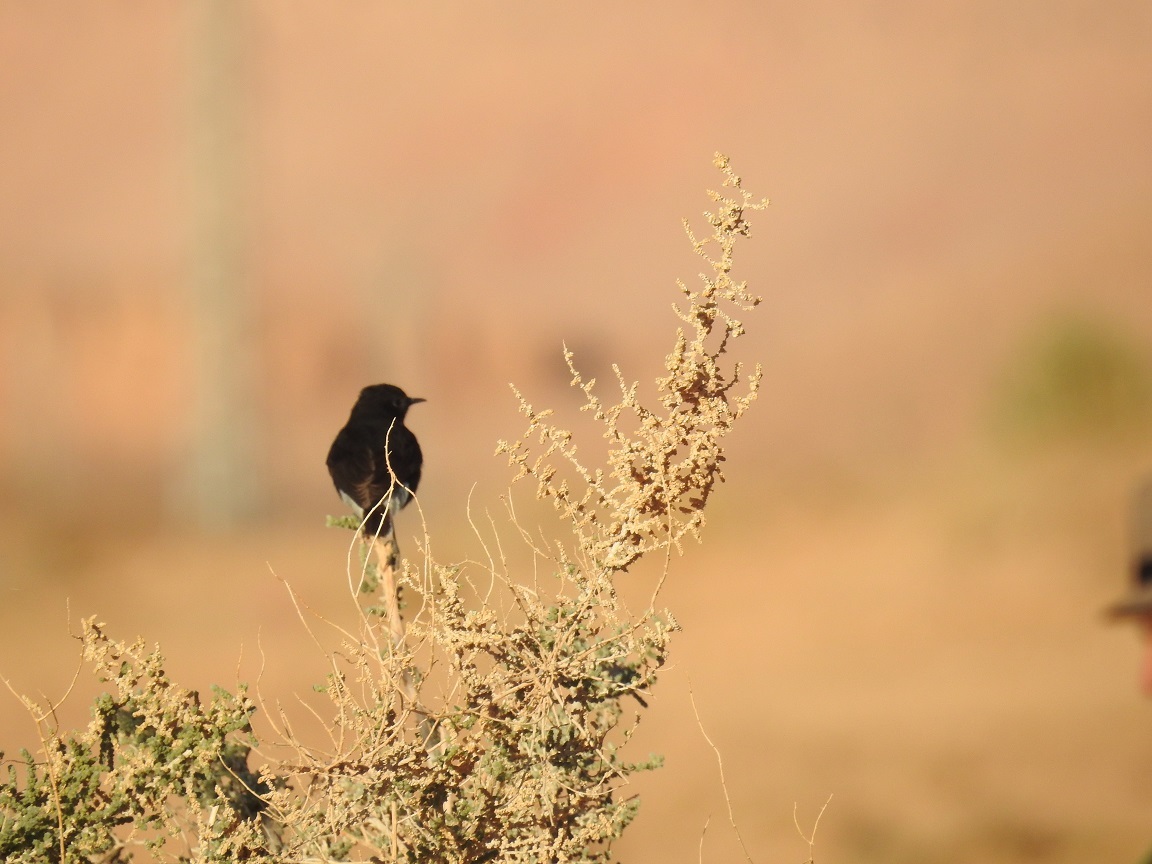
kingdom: Animalia
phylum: Chordata
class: Aves
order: Passeriformes
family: Muscicapidae
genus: Oenanthe
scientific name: Oenanthe leucopyga
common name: White-crowned wheatear
